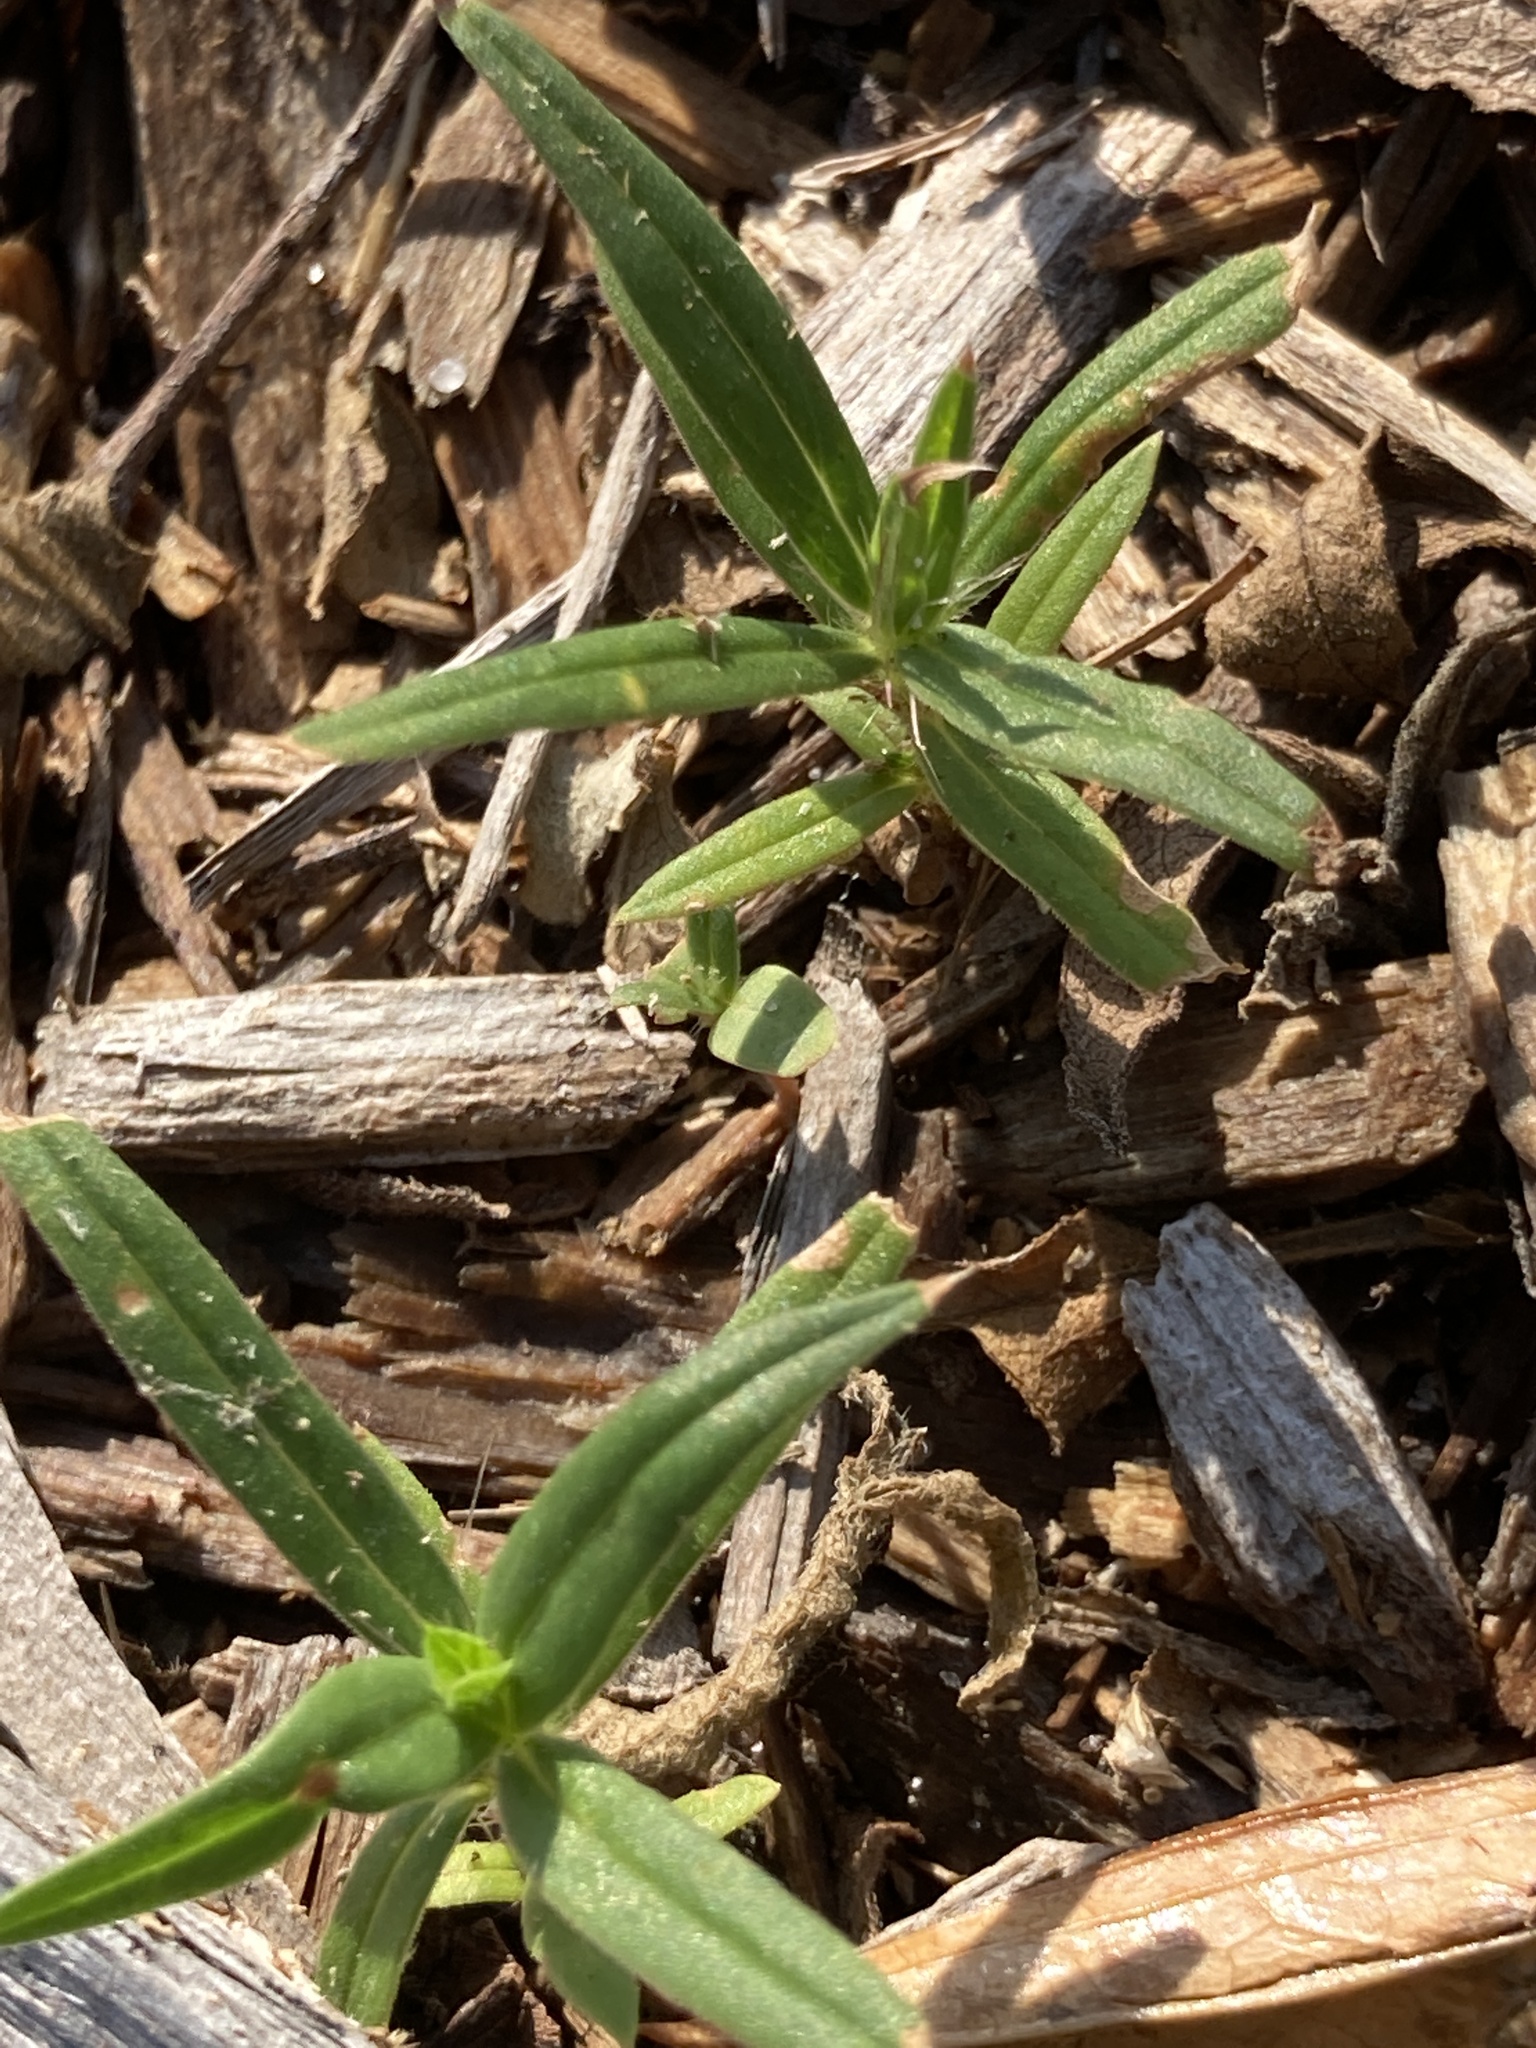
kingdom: Plantae
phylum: Tracheophyta
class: Magnoliopsida
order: Gentianales
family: Rubiaceae
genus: Hexasepalum
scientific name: Hexasepalum teres
